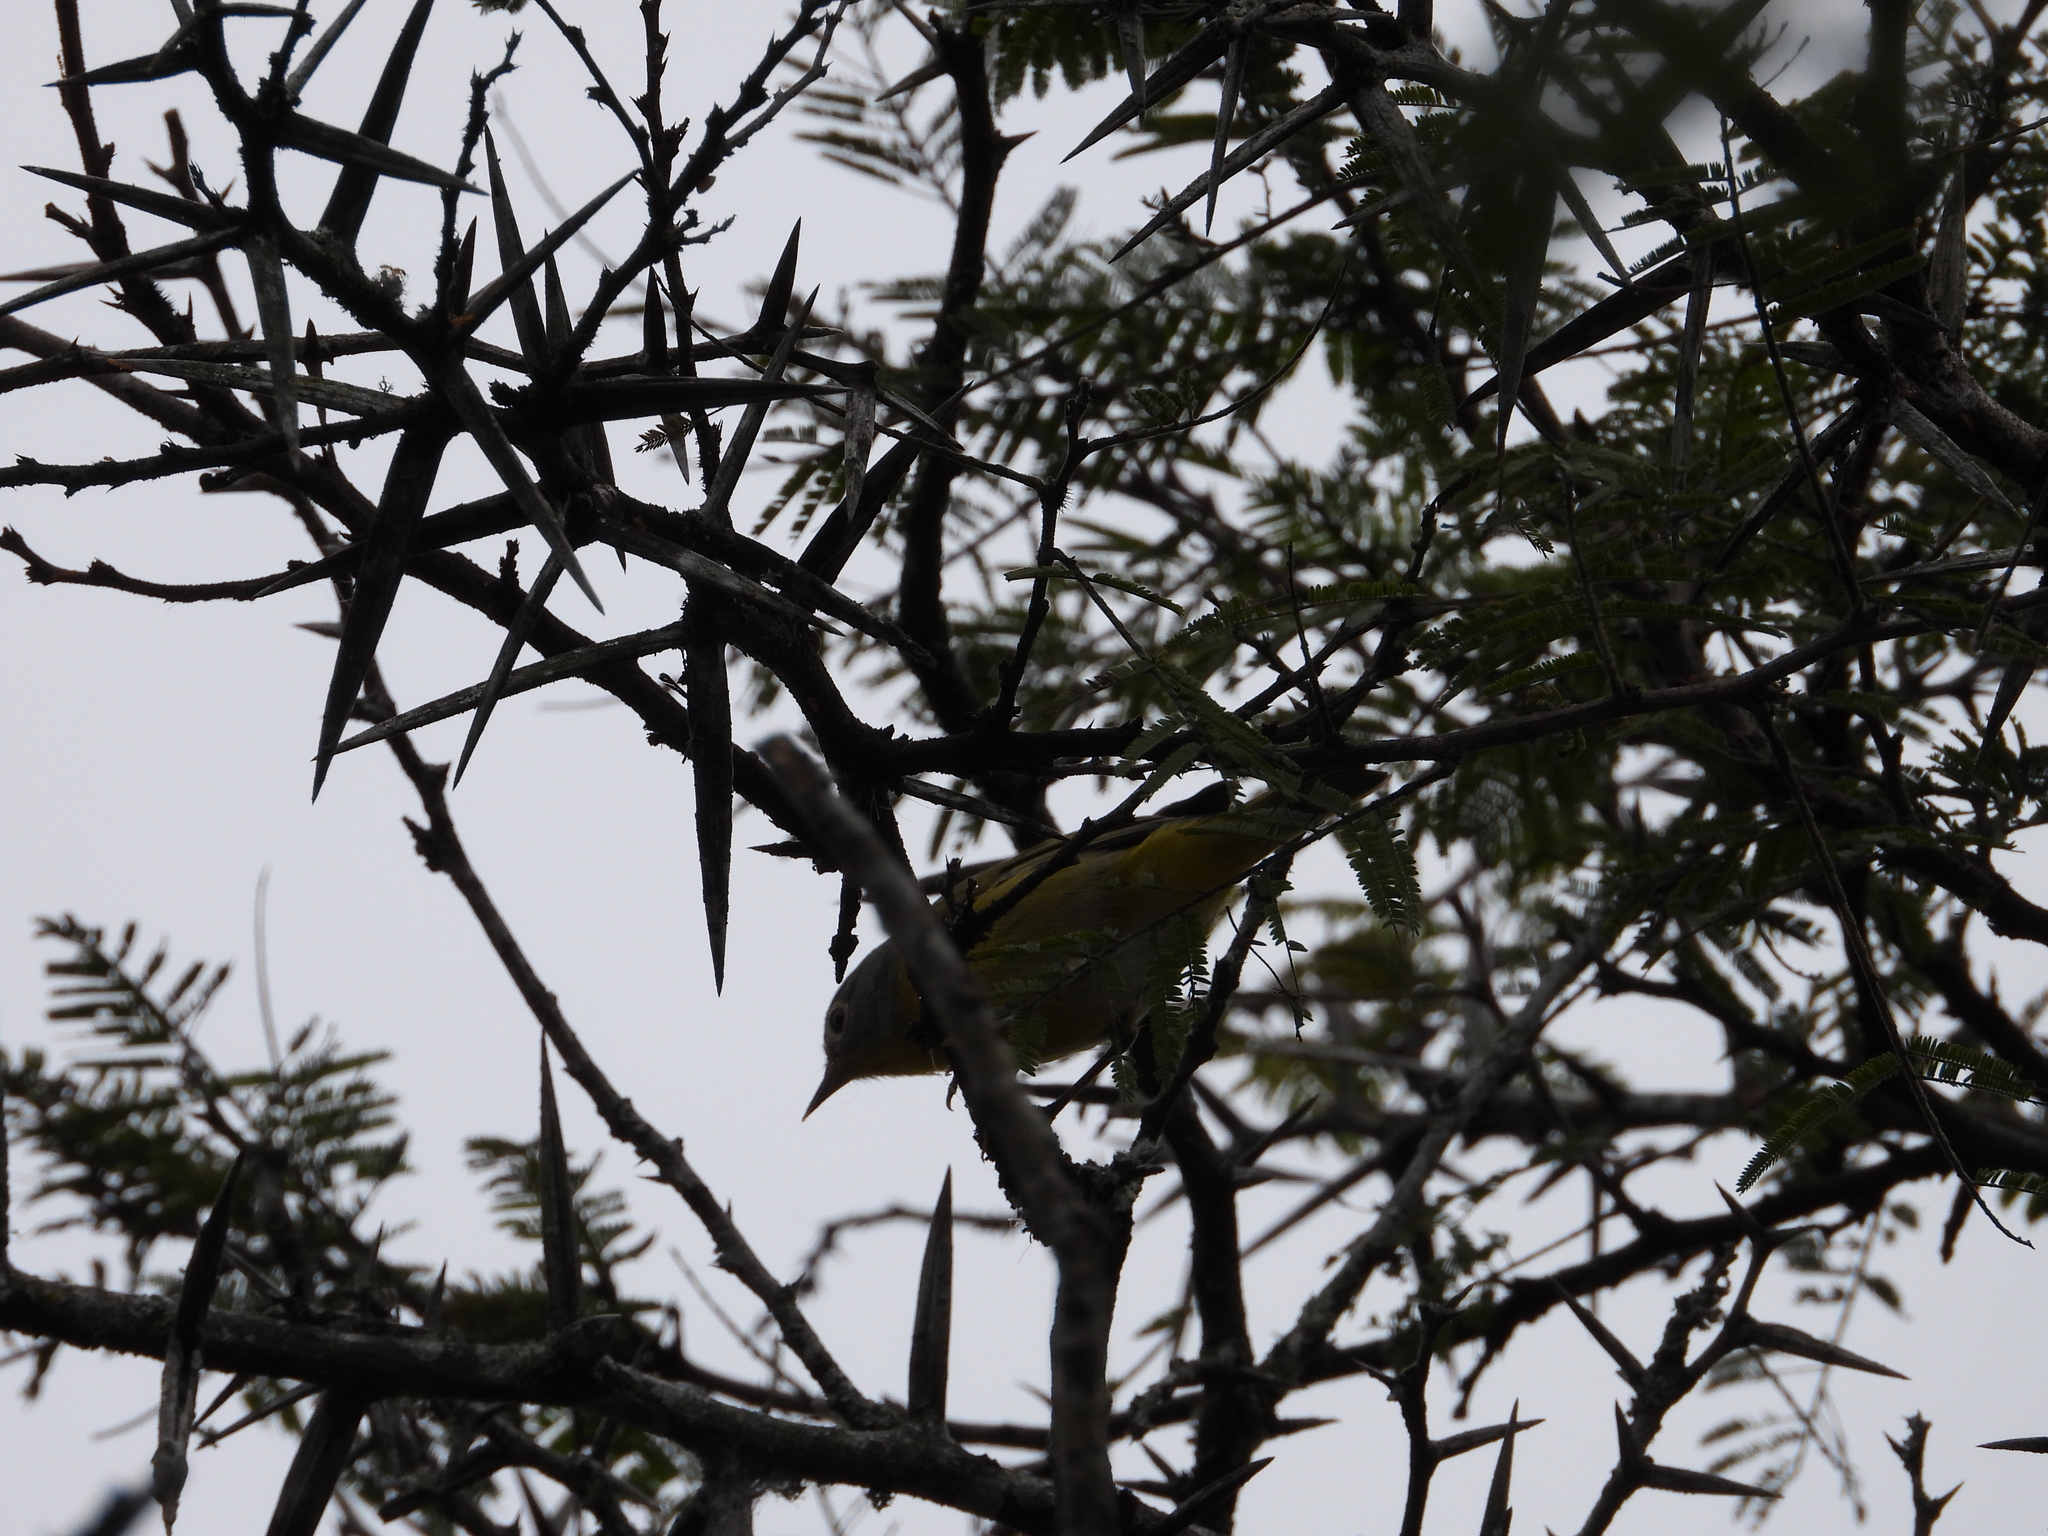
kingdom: Animalia
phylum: Chordata
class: Aves
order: Passeriformes
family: Parulidae
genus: Leiothlypis
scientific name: Leiothlypis ruficapilla
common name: Nashville warbler
